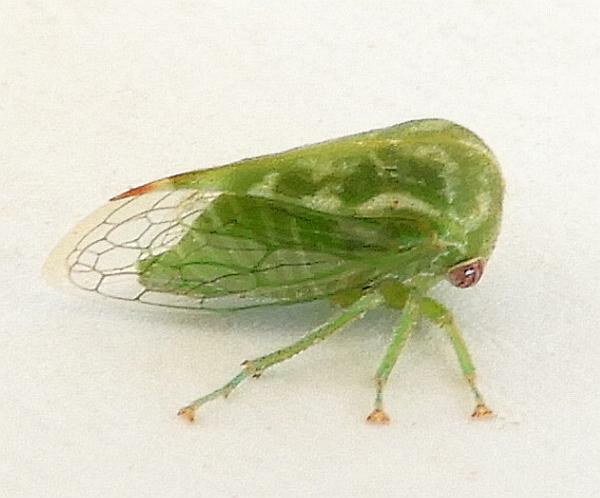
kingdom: Animalia
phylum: Arthropoda
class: Insecta
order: Hemiptera
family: Membracidae
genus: Trichaetipyga
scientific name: Trichaetipyga juniperinus
